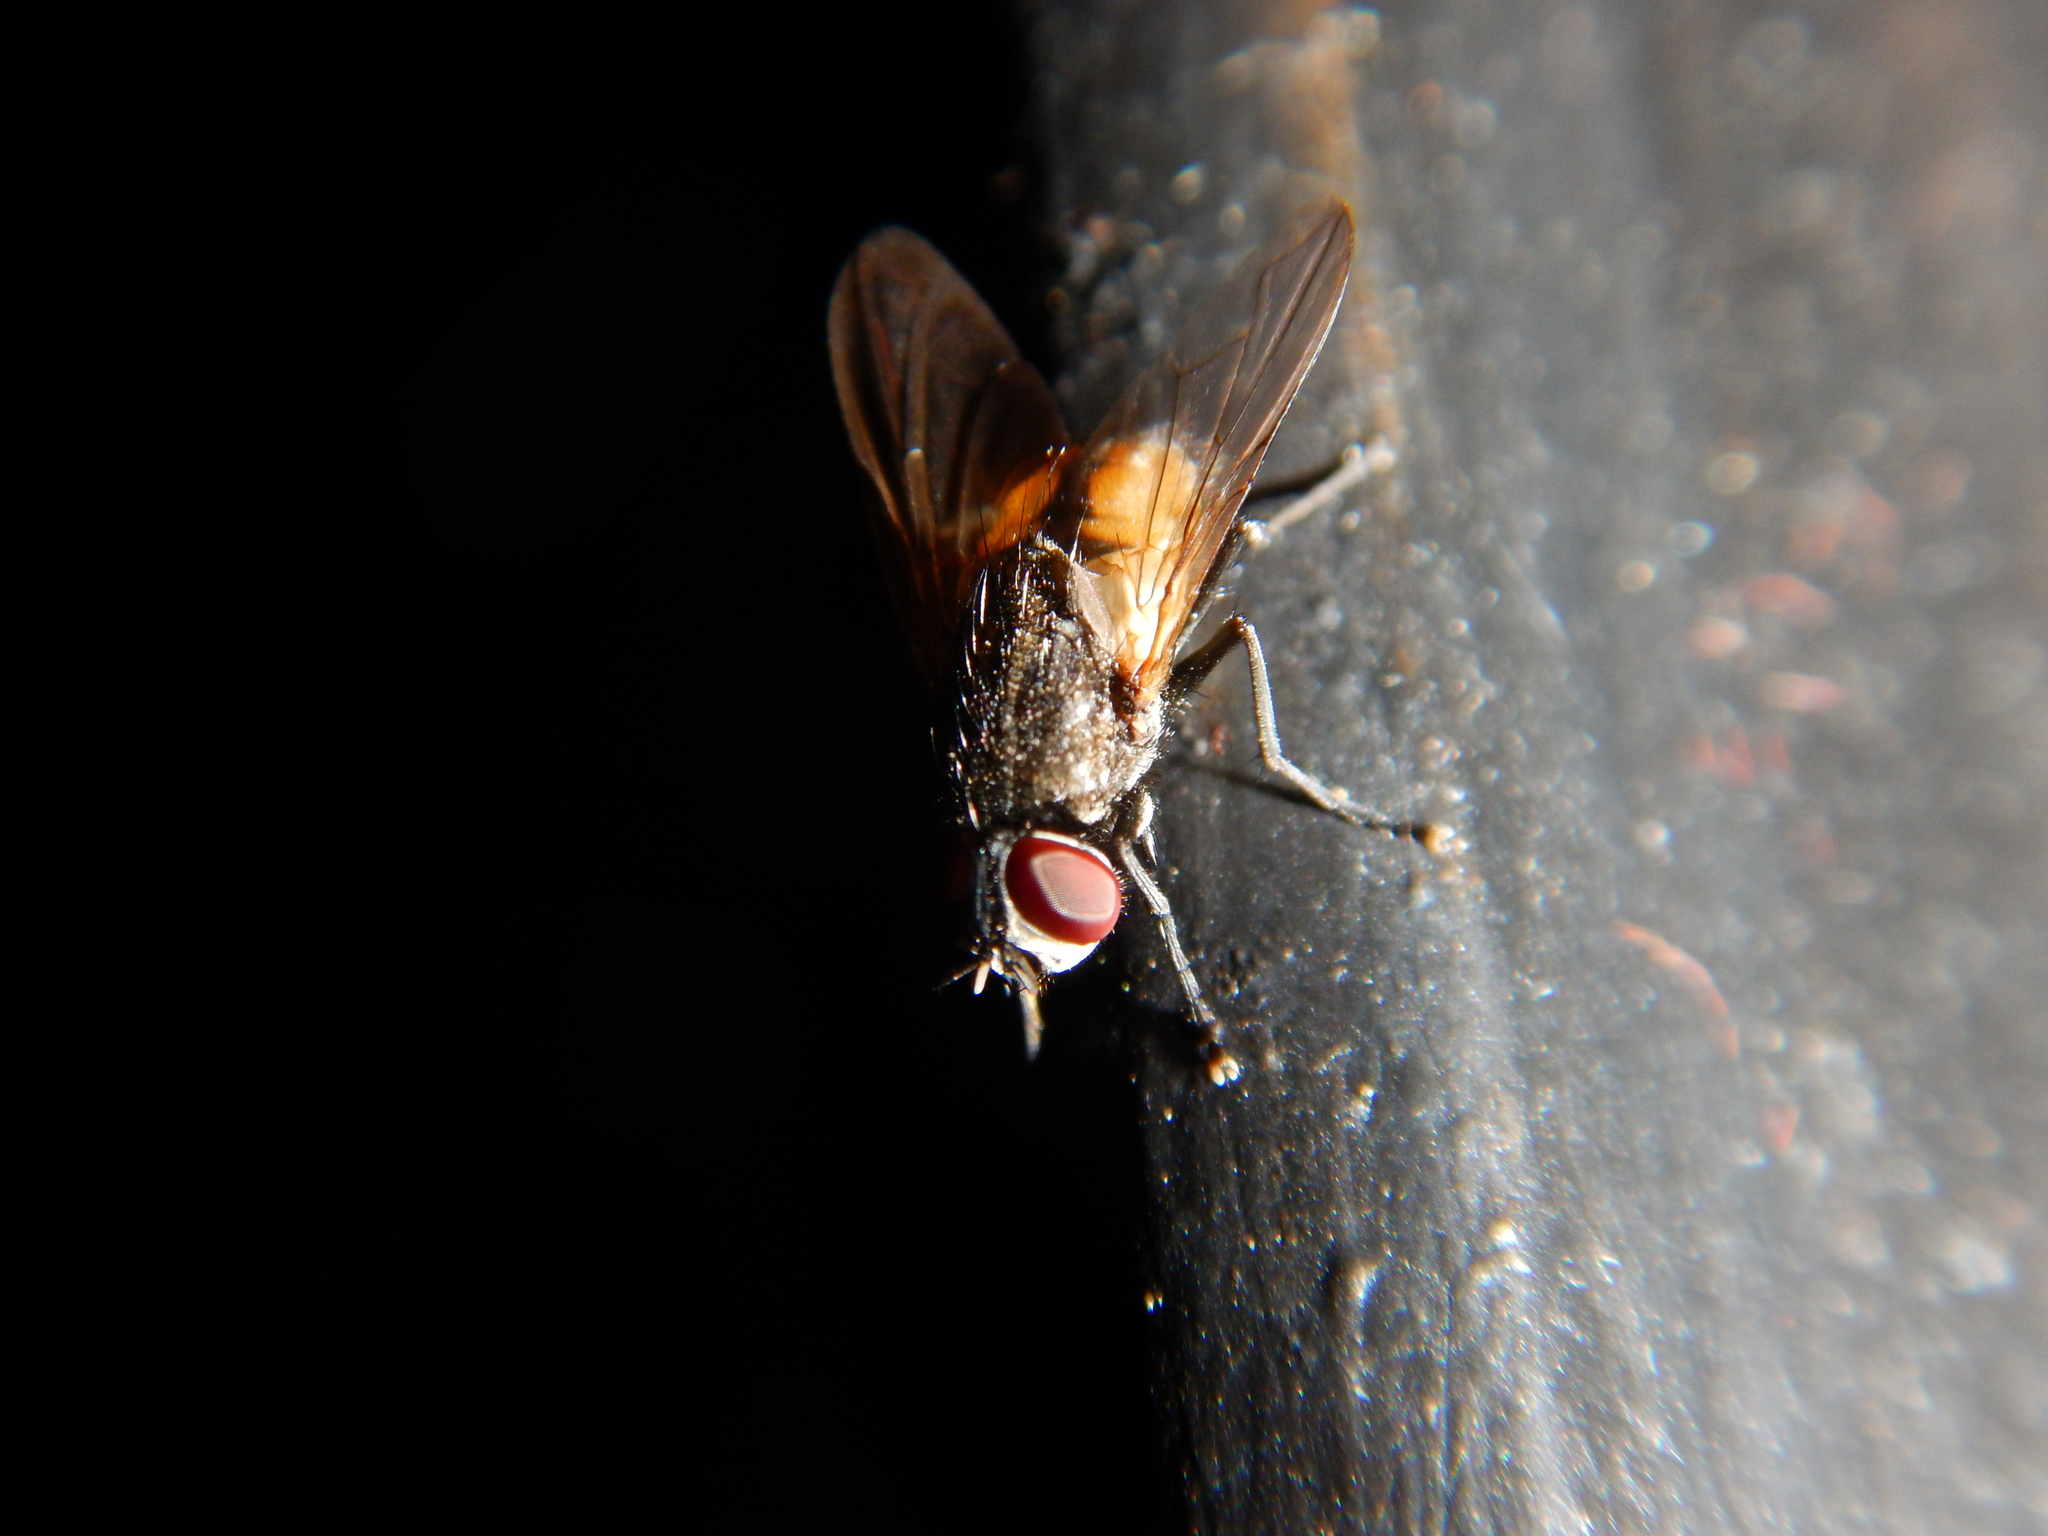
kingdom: Animalia
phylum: Arthropoda
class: Insecta
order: Diptera
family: Muscidae
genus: Musca
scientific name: Musca domestica
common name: House fly
